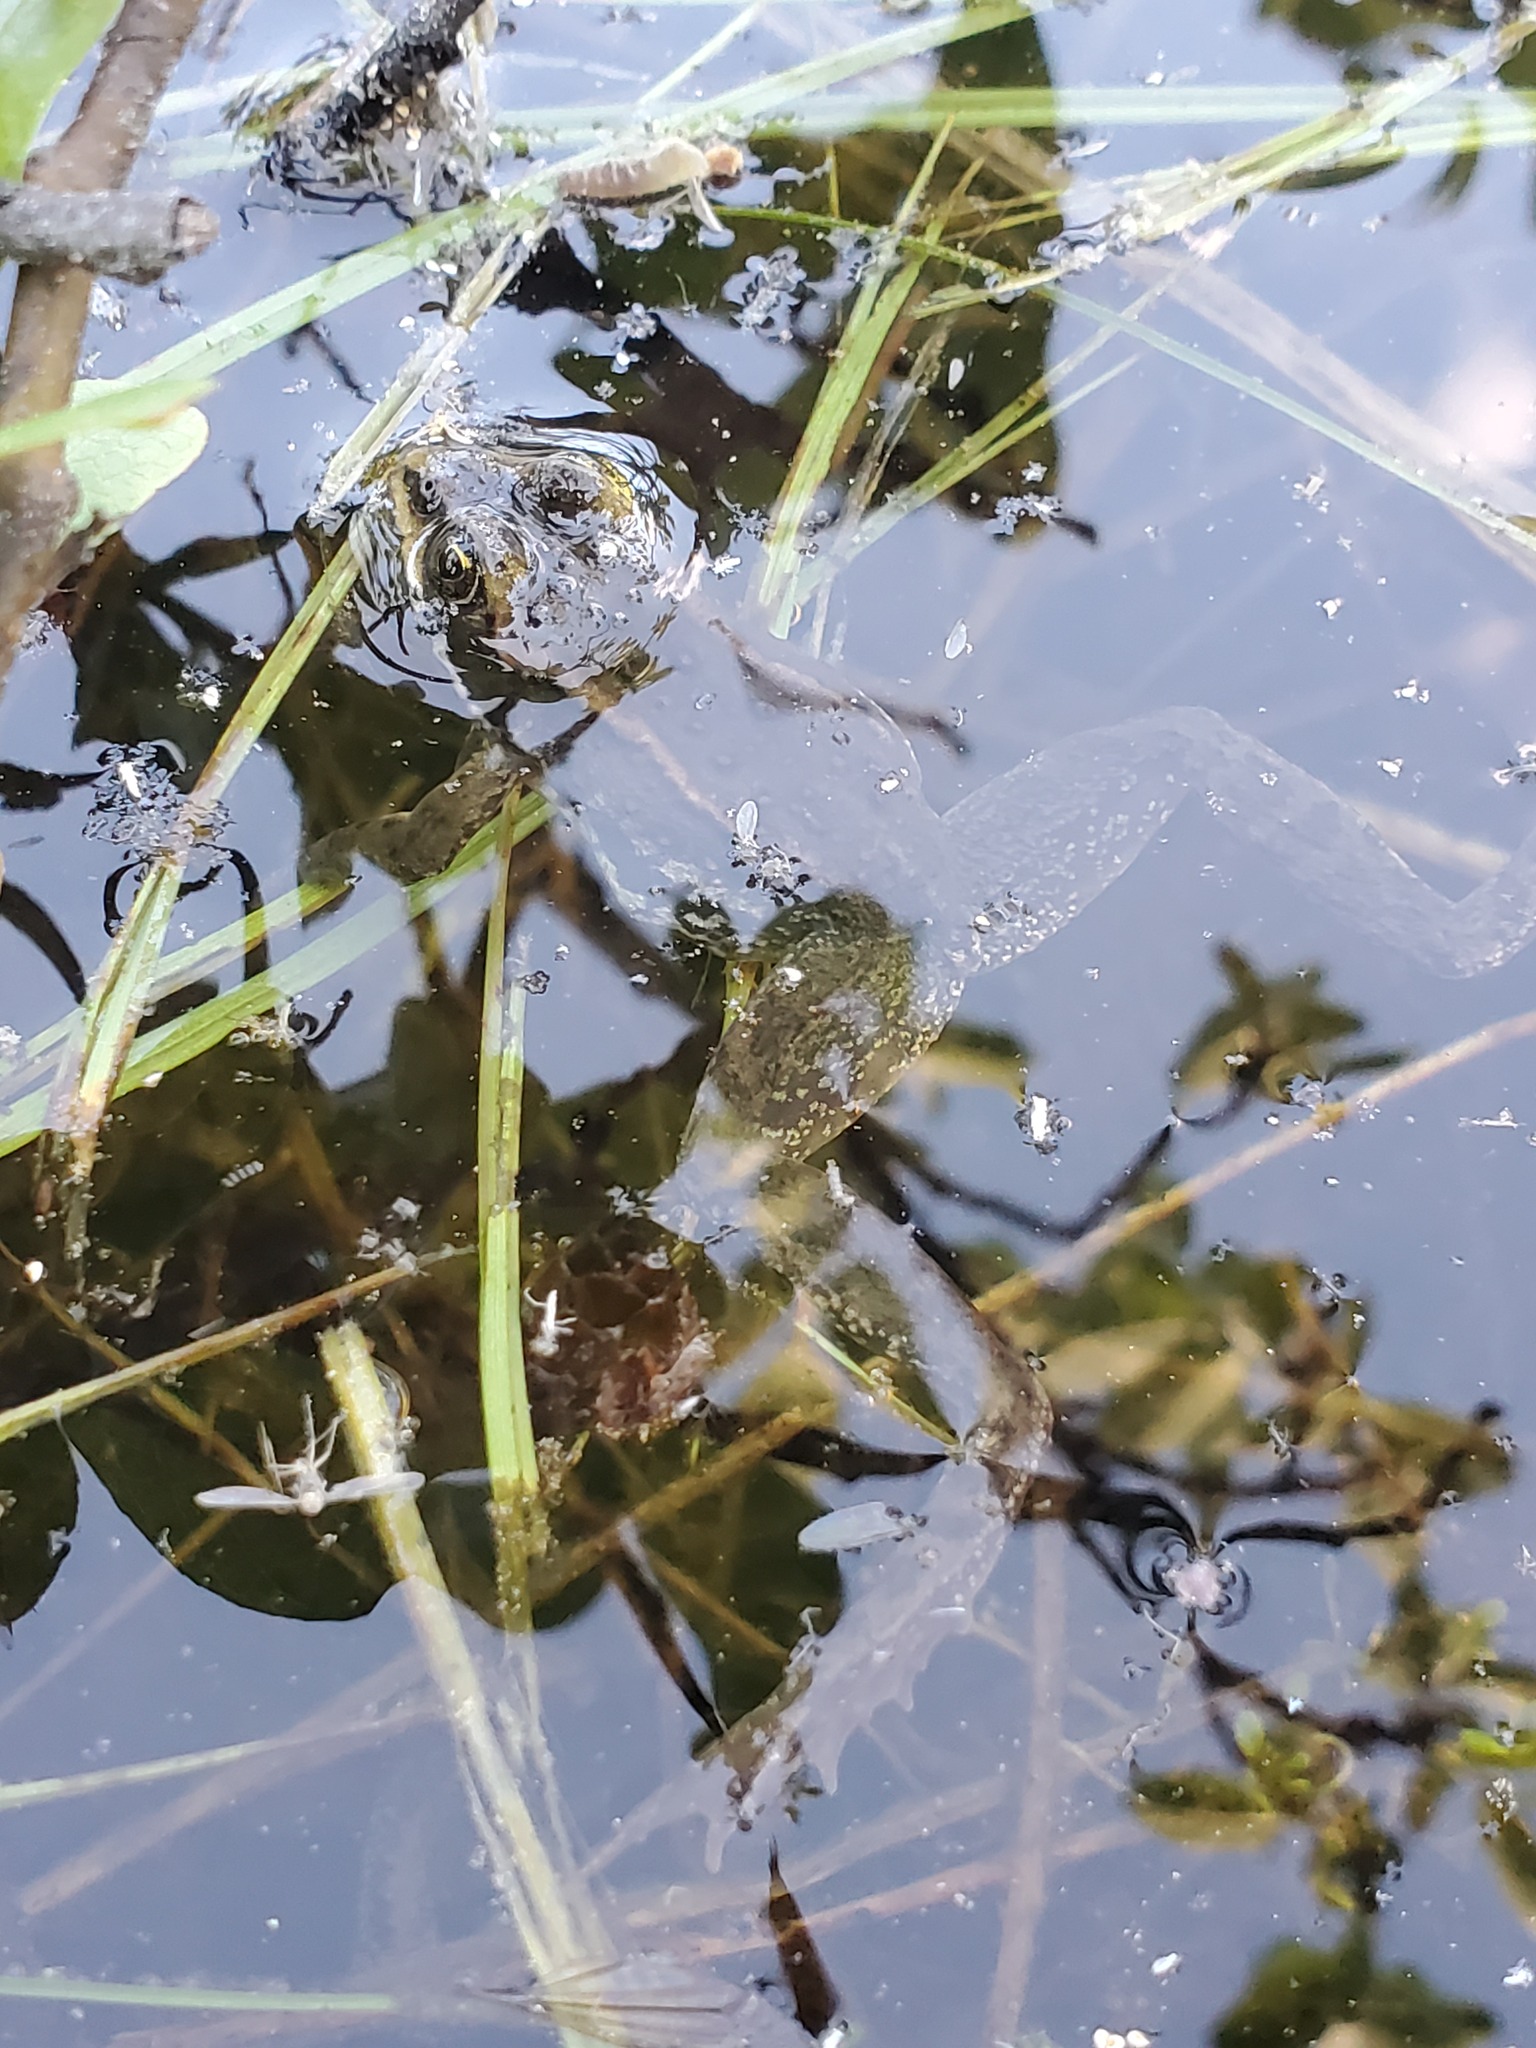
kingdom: Animalia
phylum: Chordata
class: Amphibia
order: Anura
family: Ranidae
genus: Rana
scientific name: Rana luteiventris
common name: Columbia spotted frog
